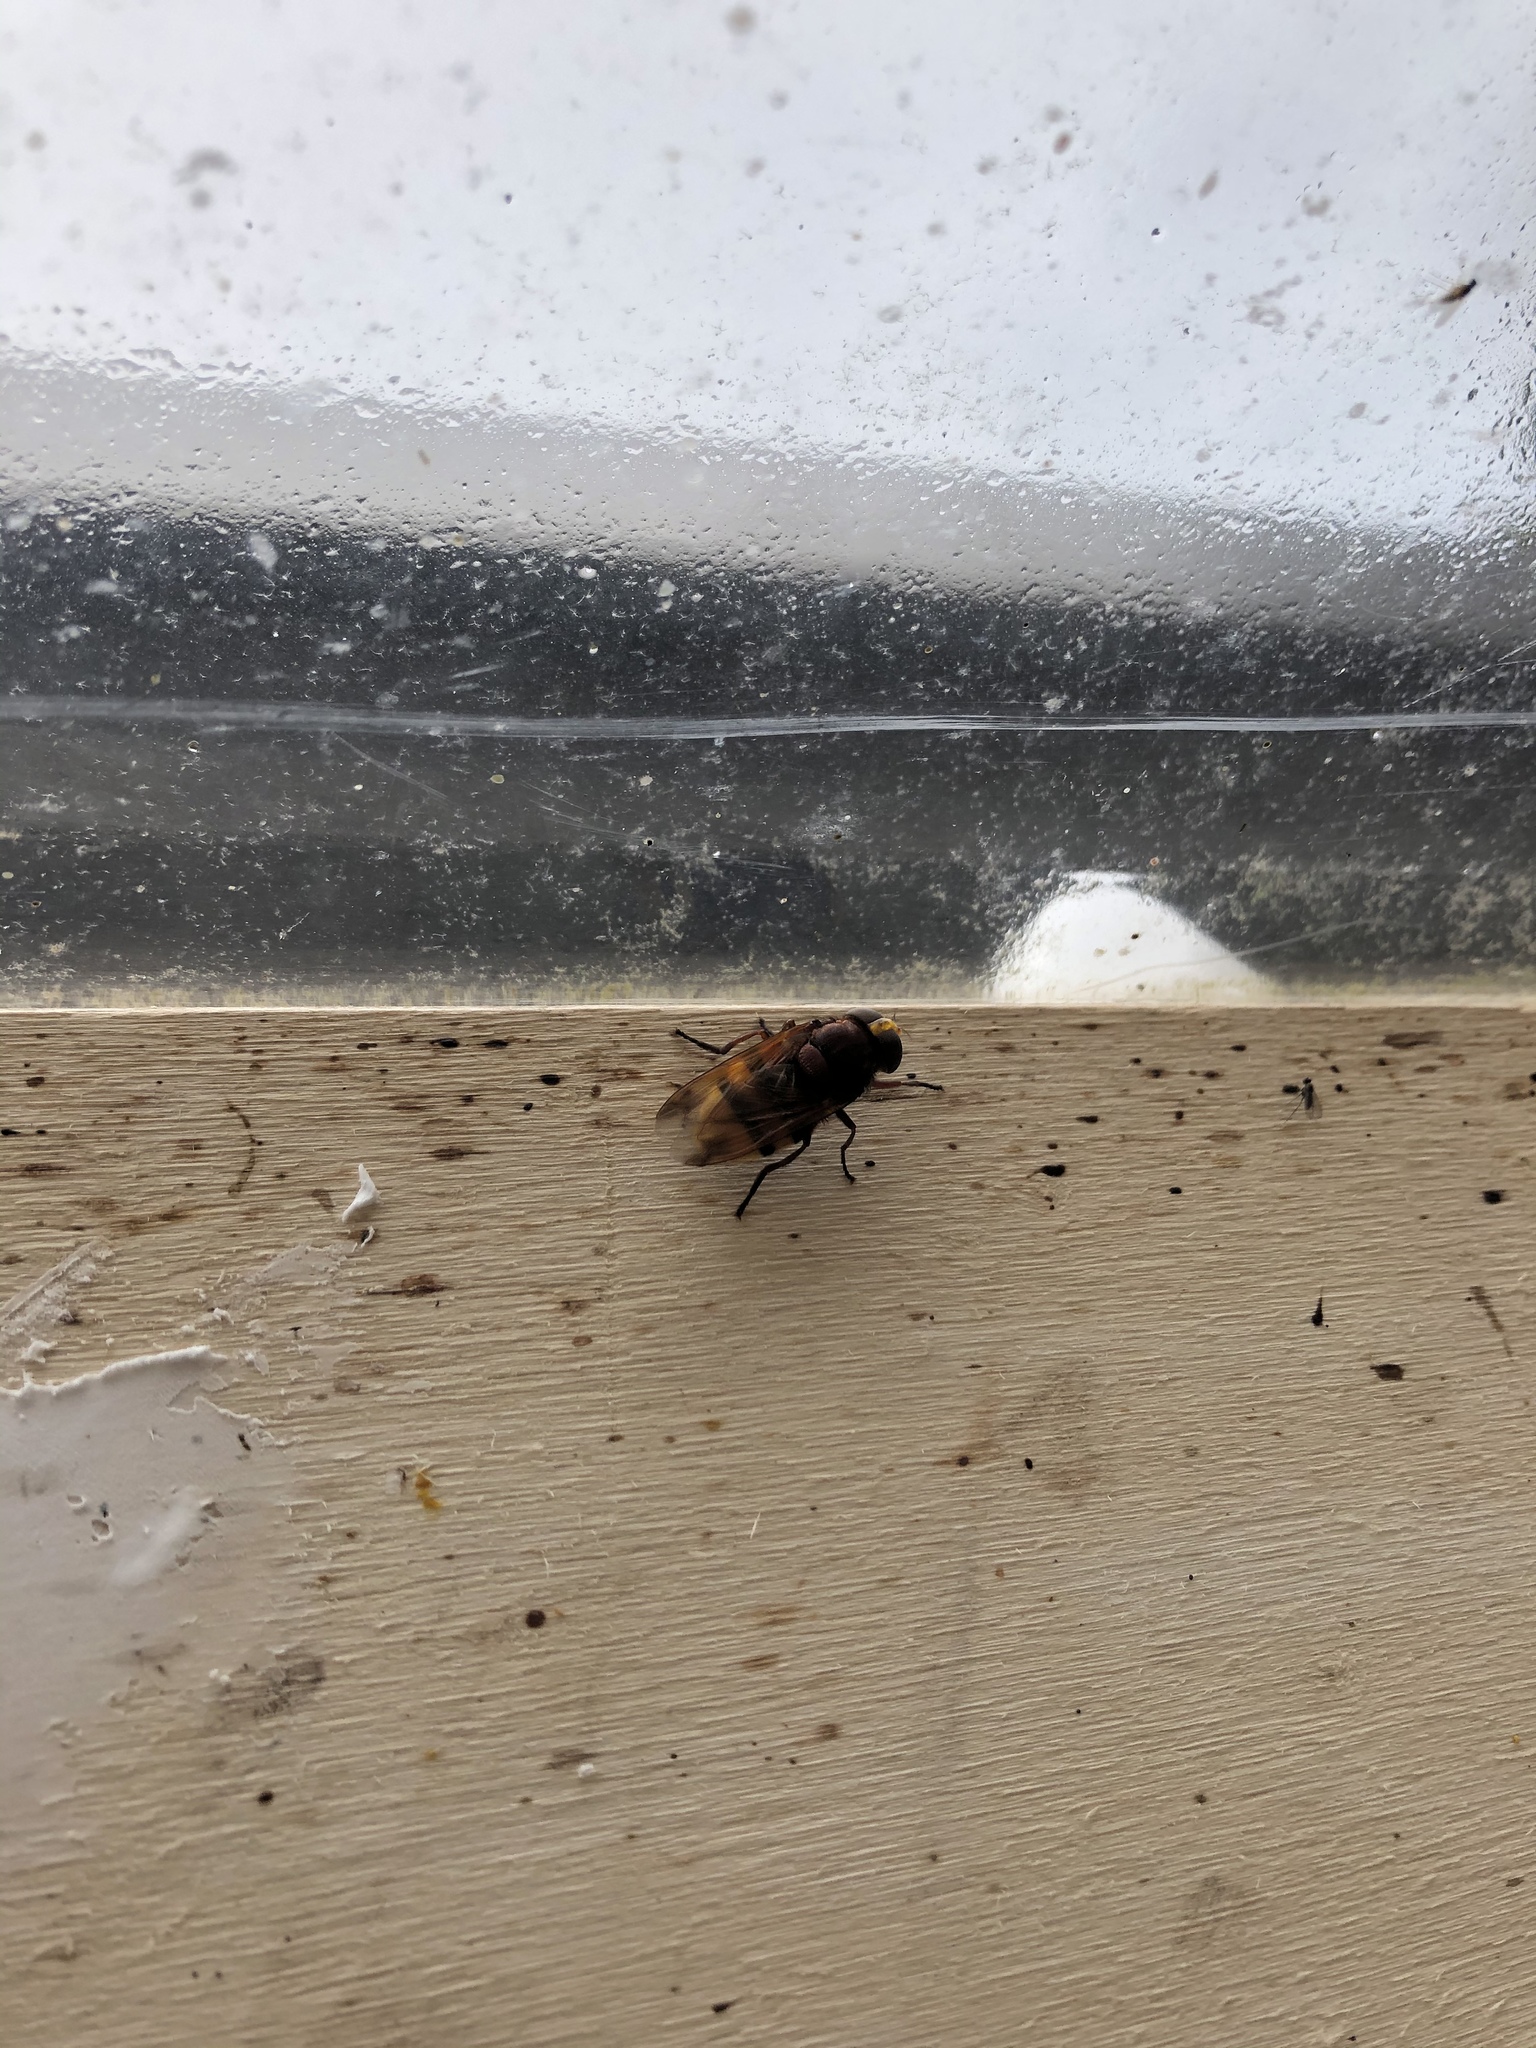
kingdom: Animalia
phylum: Arthropoda
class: Insecta
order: Diptera
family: Syrphidae
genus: Volucella
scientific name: Volucella zonaria
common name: Hornet hoverfly
